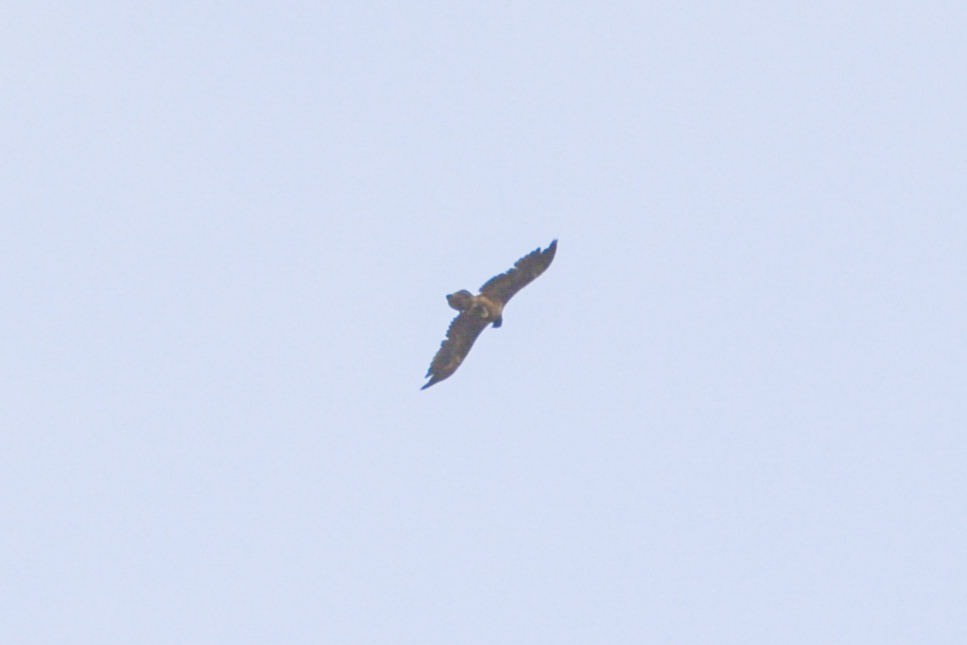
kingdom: Animalia
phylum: Chordata
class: Aves
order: Accipitriformes
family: Accipitridae
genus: Gypaetus
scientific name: Gypaetus barbatus
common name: Bearded vulture
